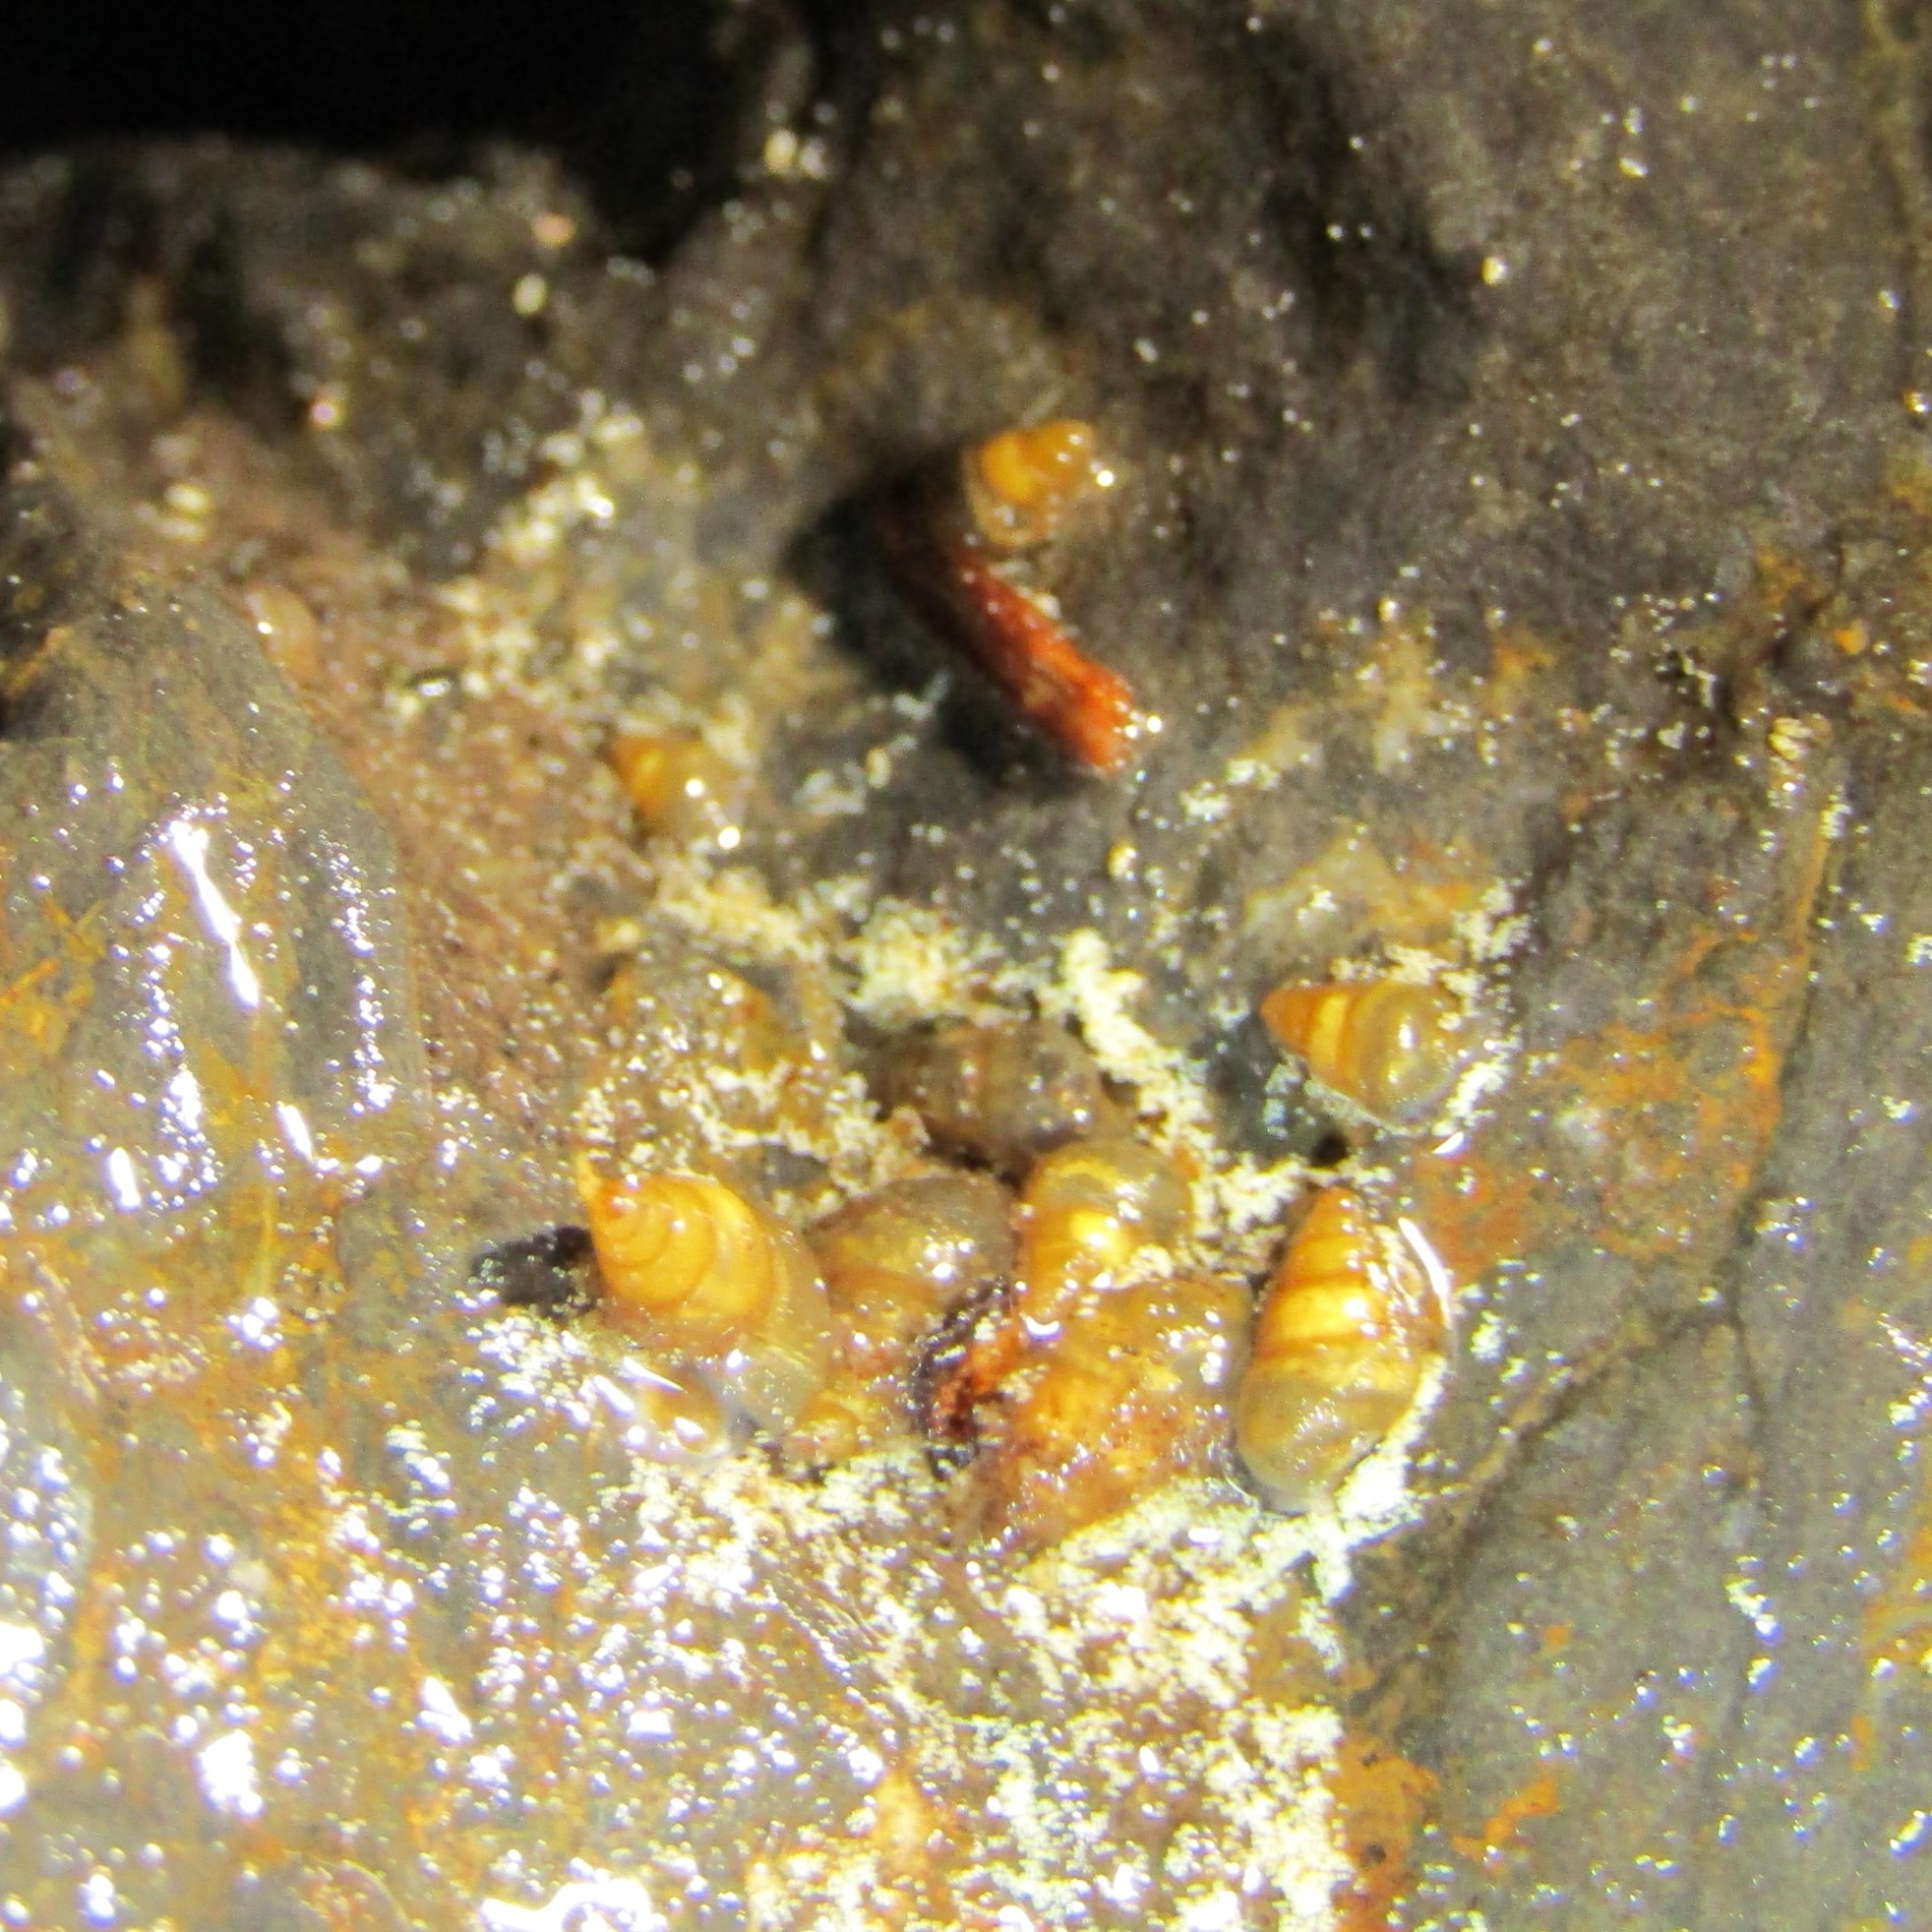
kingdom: Animalia
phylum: Mollusca
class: Gastropoda
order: Littorinimorpha
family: Tateidae
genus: Potamopyrgus
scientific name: Potamopyrgus antipodarum
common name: Jenkins' spire snail
